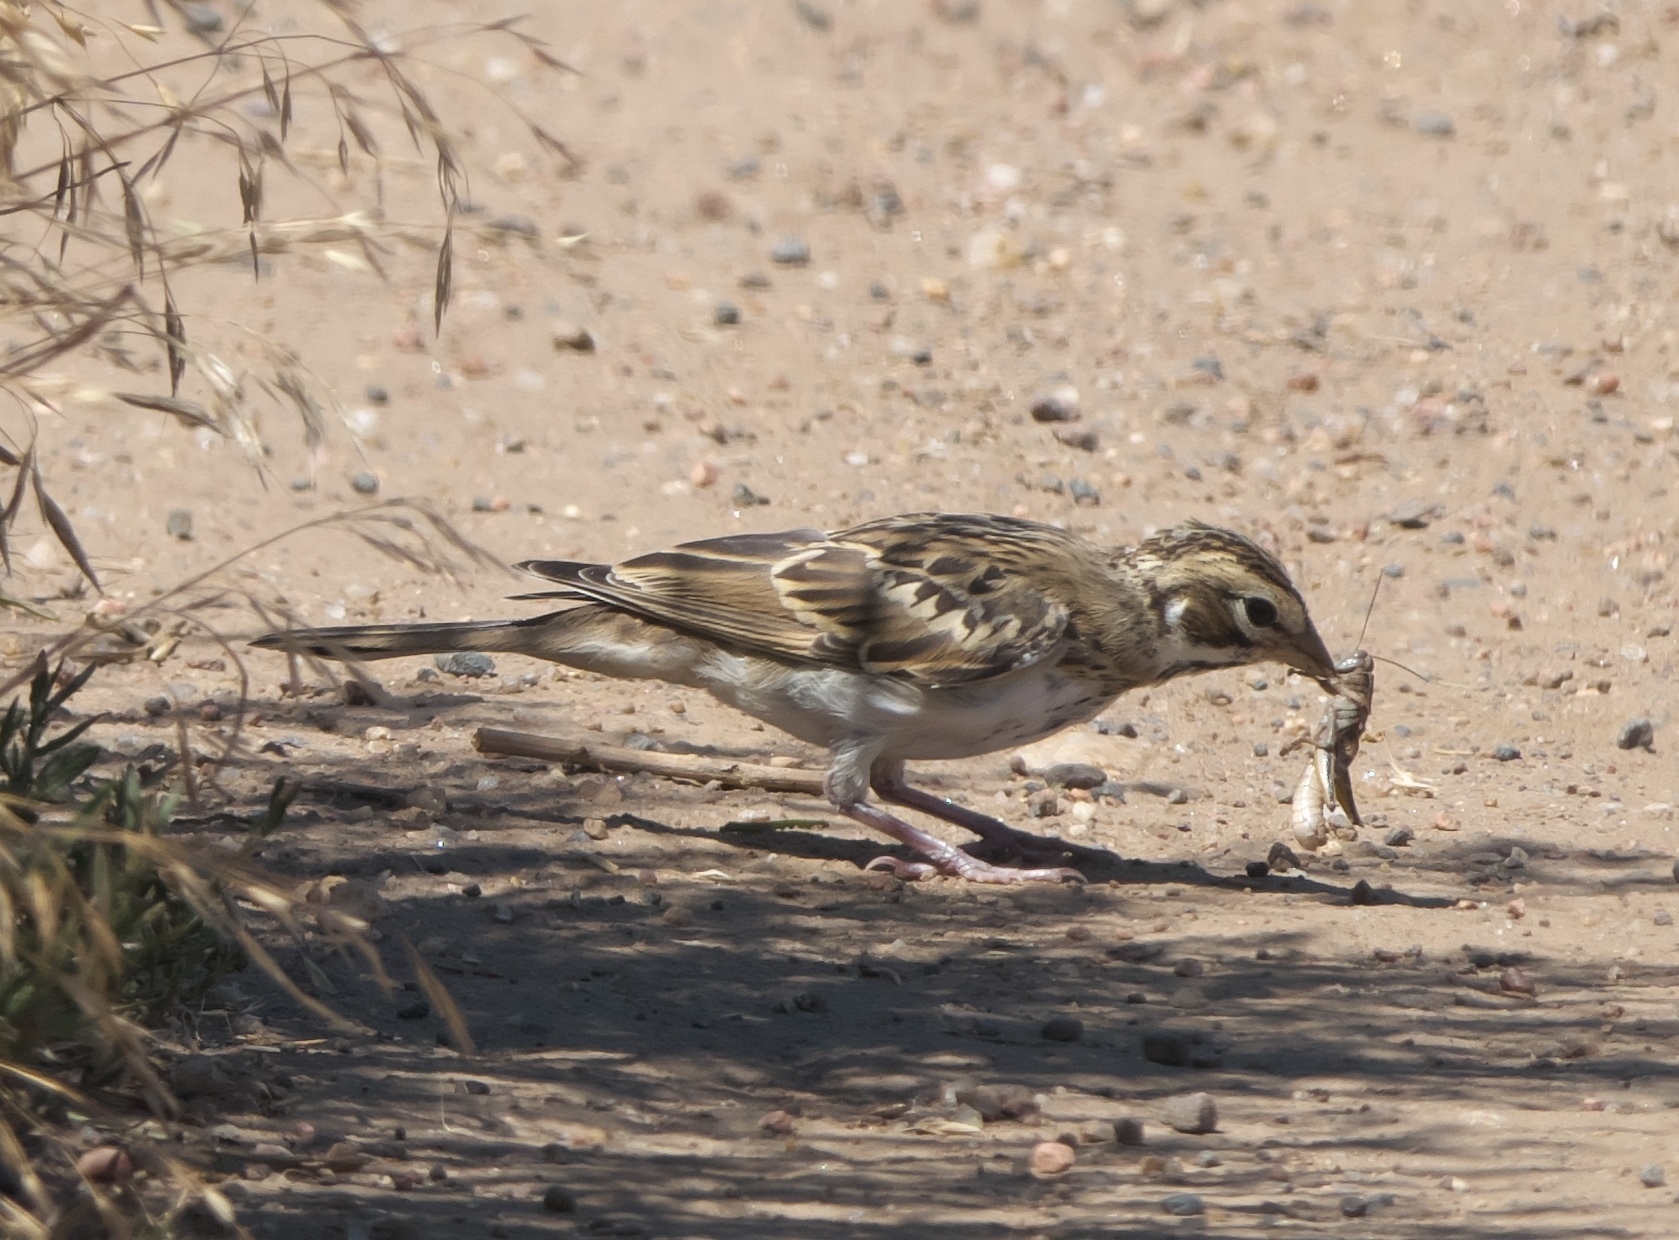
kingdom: Animalia
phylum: Chordata
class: Aves
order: Passeriformes
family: Passerellidae
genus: Chondestes
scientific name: Chondestes grammacus
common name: Lark sparrow
